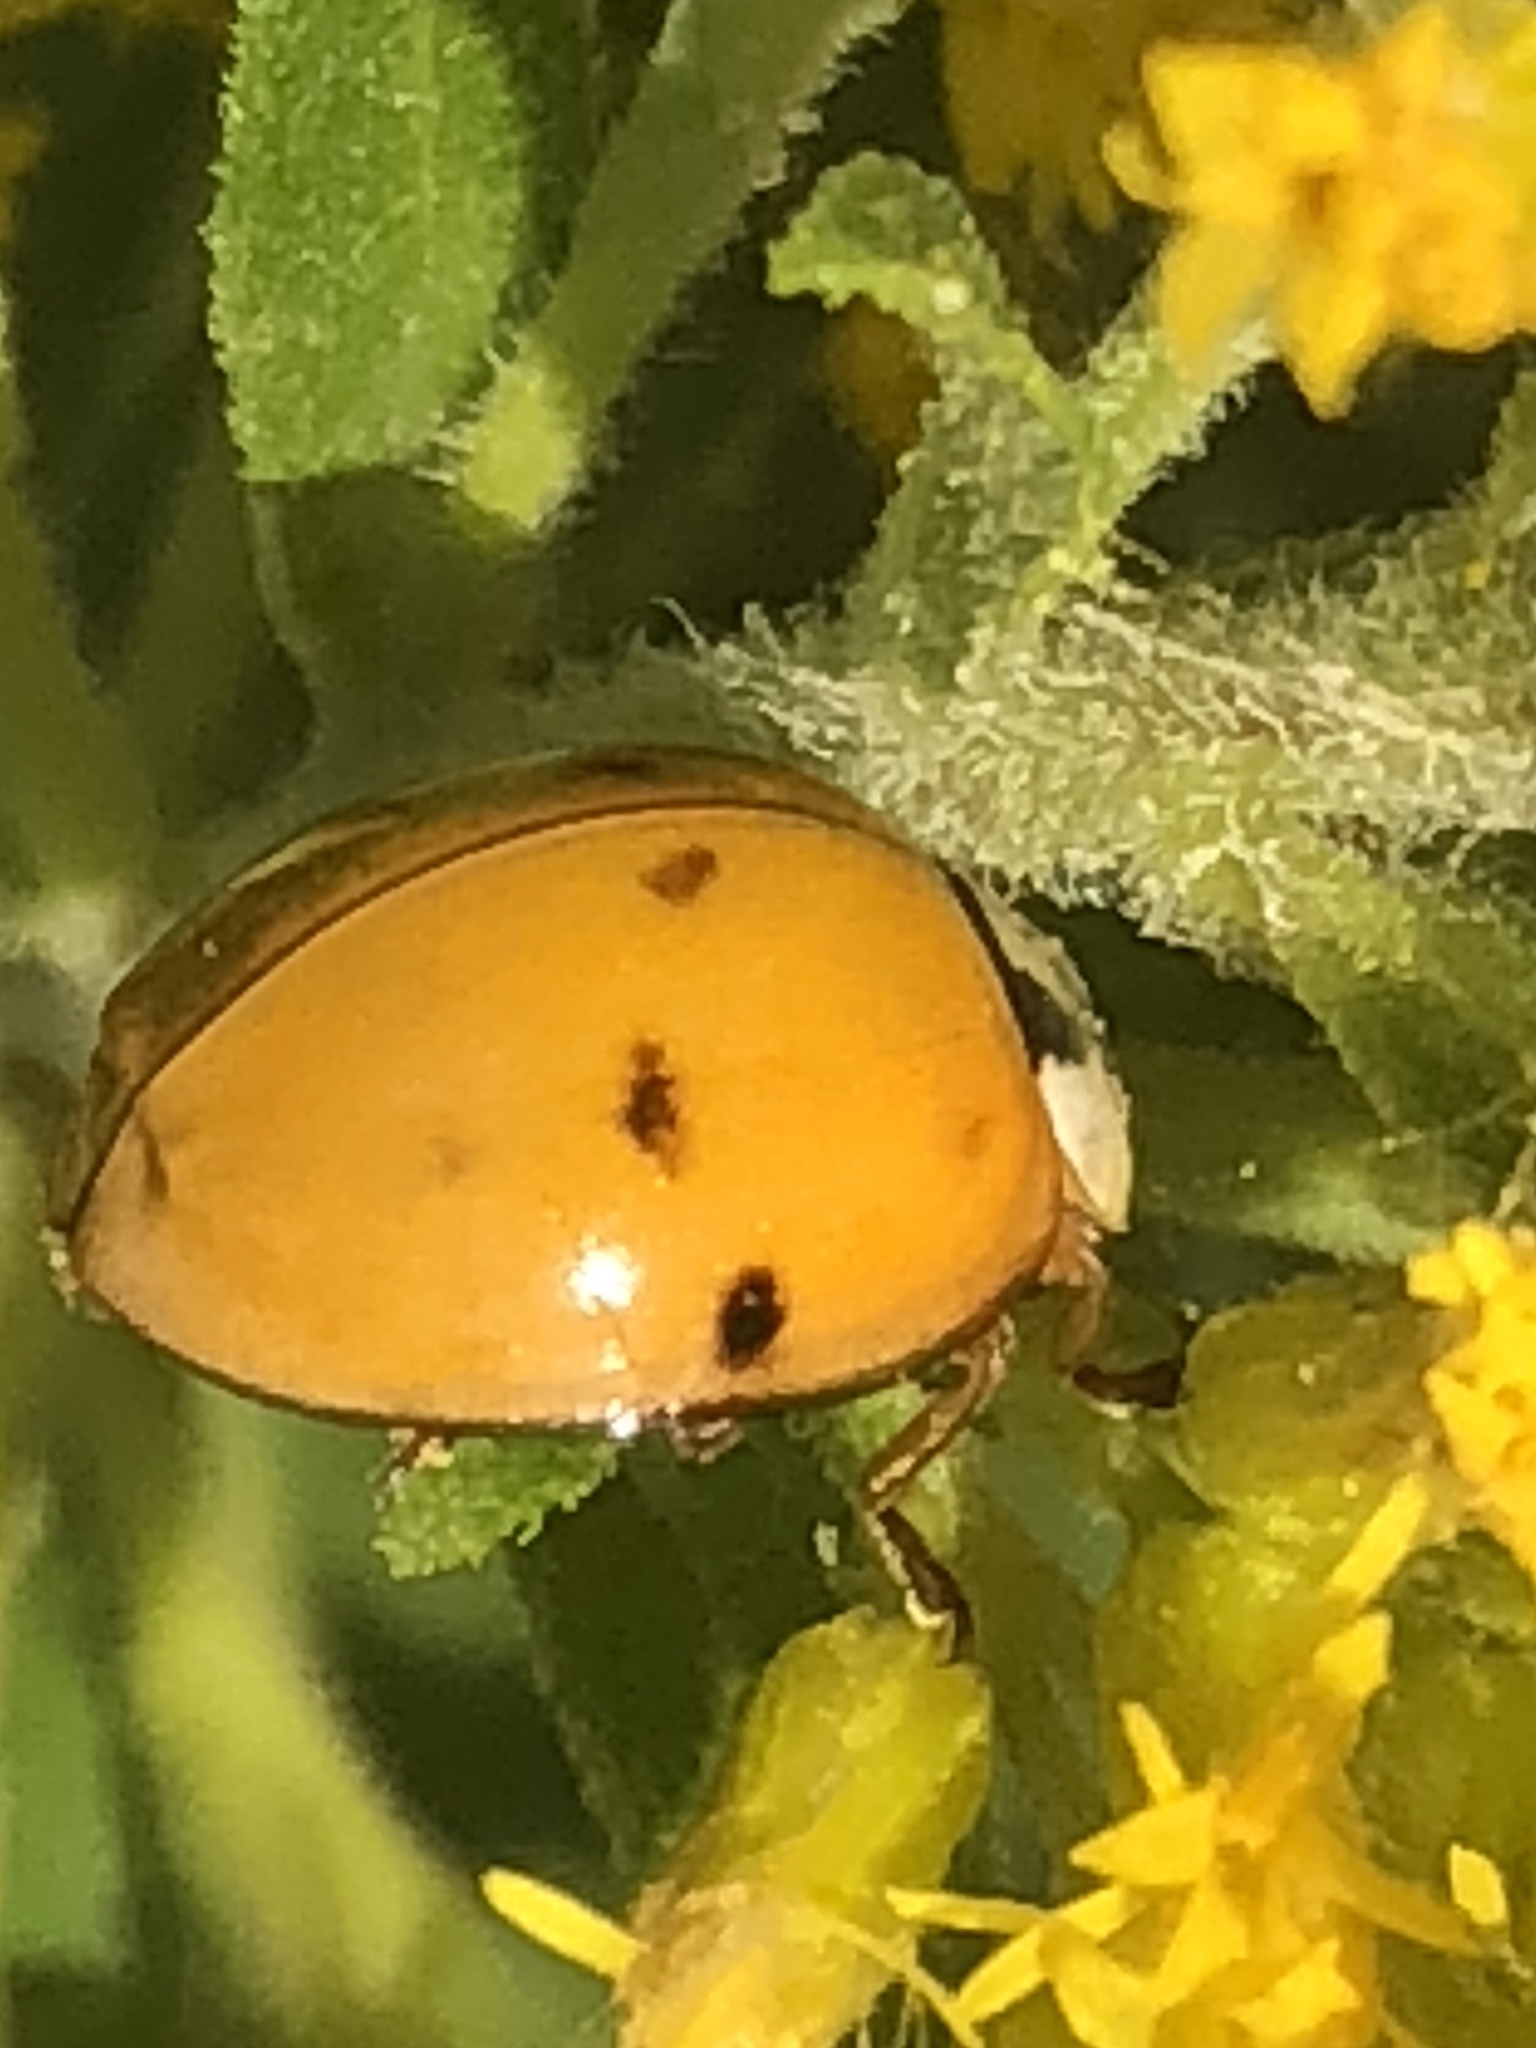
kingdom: Animalia
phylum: Arthropoda
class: Insecta
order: Coleoptera
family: Coccinellidae
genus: Harmonia
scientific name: Harmonia axyridis
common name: Harlequin ladybird
